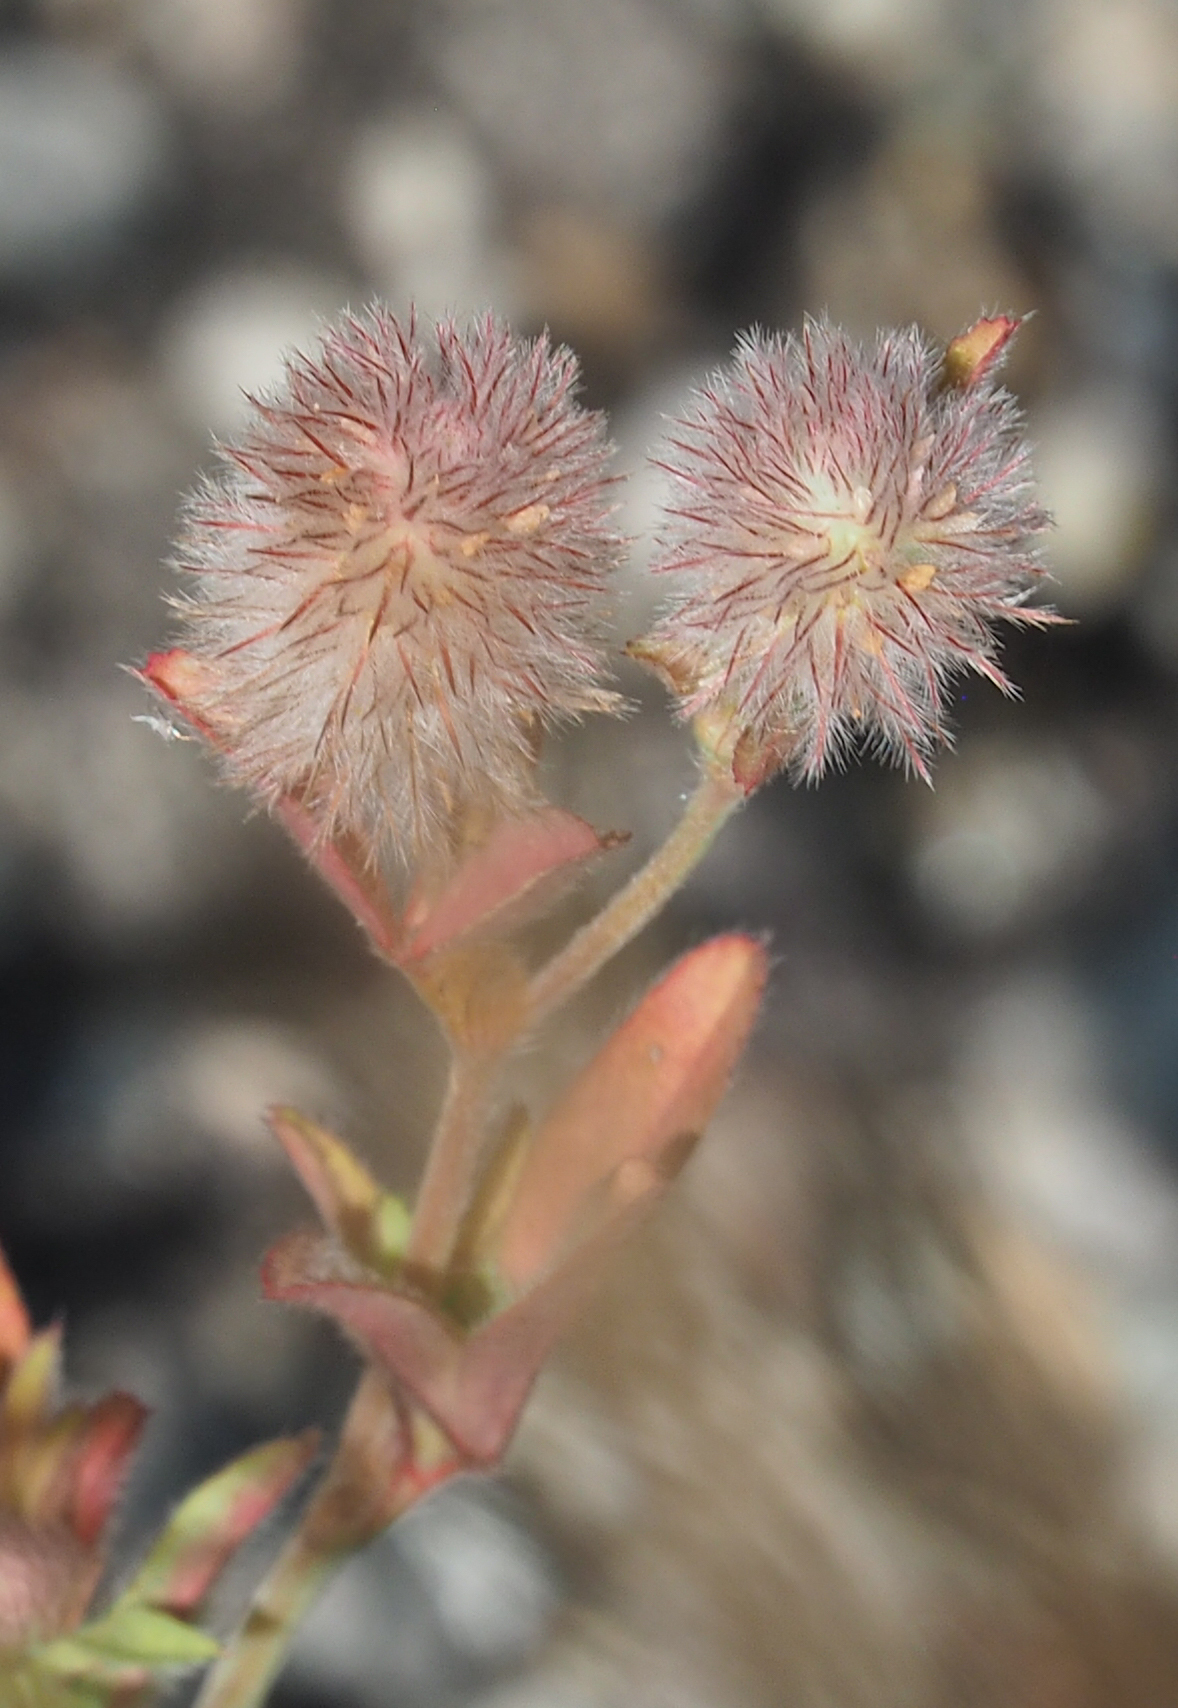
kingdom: Plantae
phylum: Tracheophyta
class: Magnoliopsida
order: Fabales
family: Fabaceae
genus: Trifolium
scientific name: Trifolium arvense
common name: Hare's-foot clover
